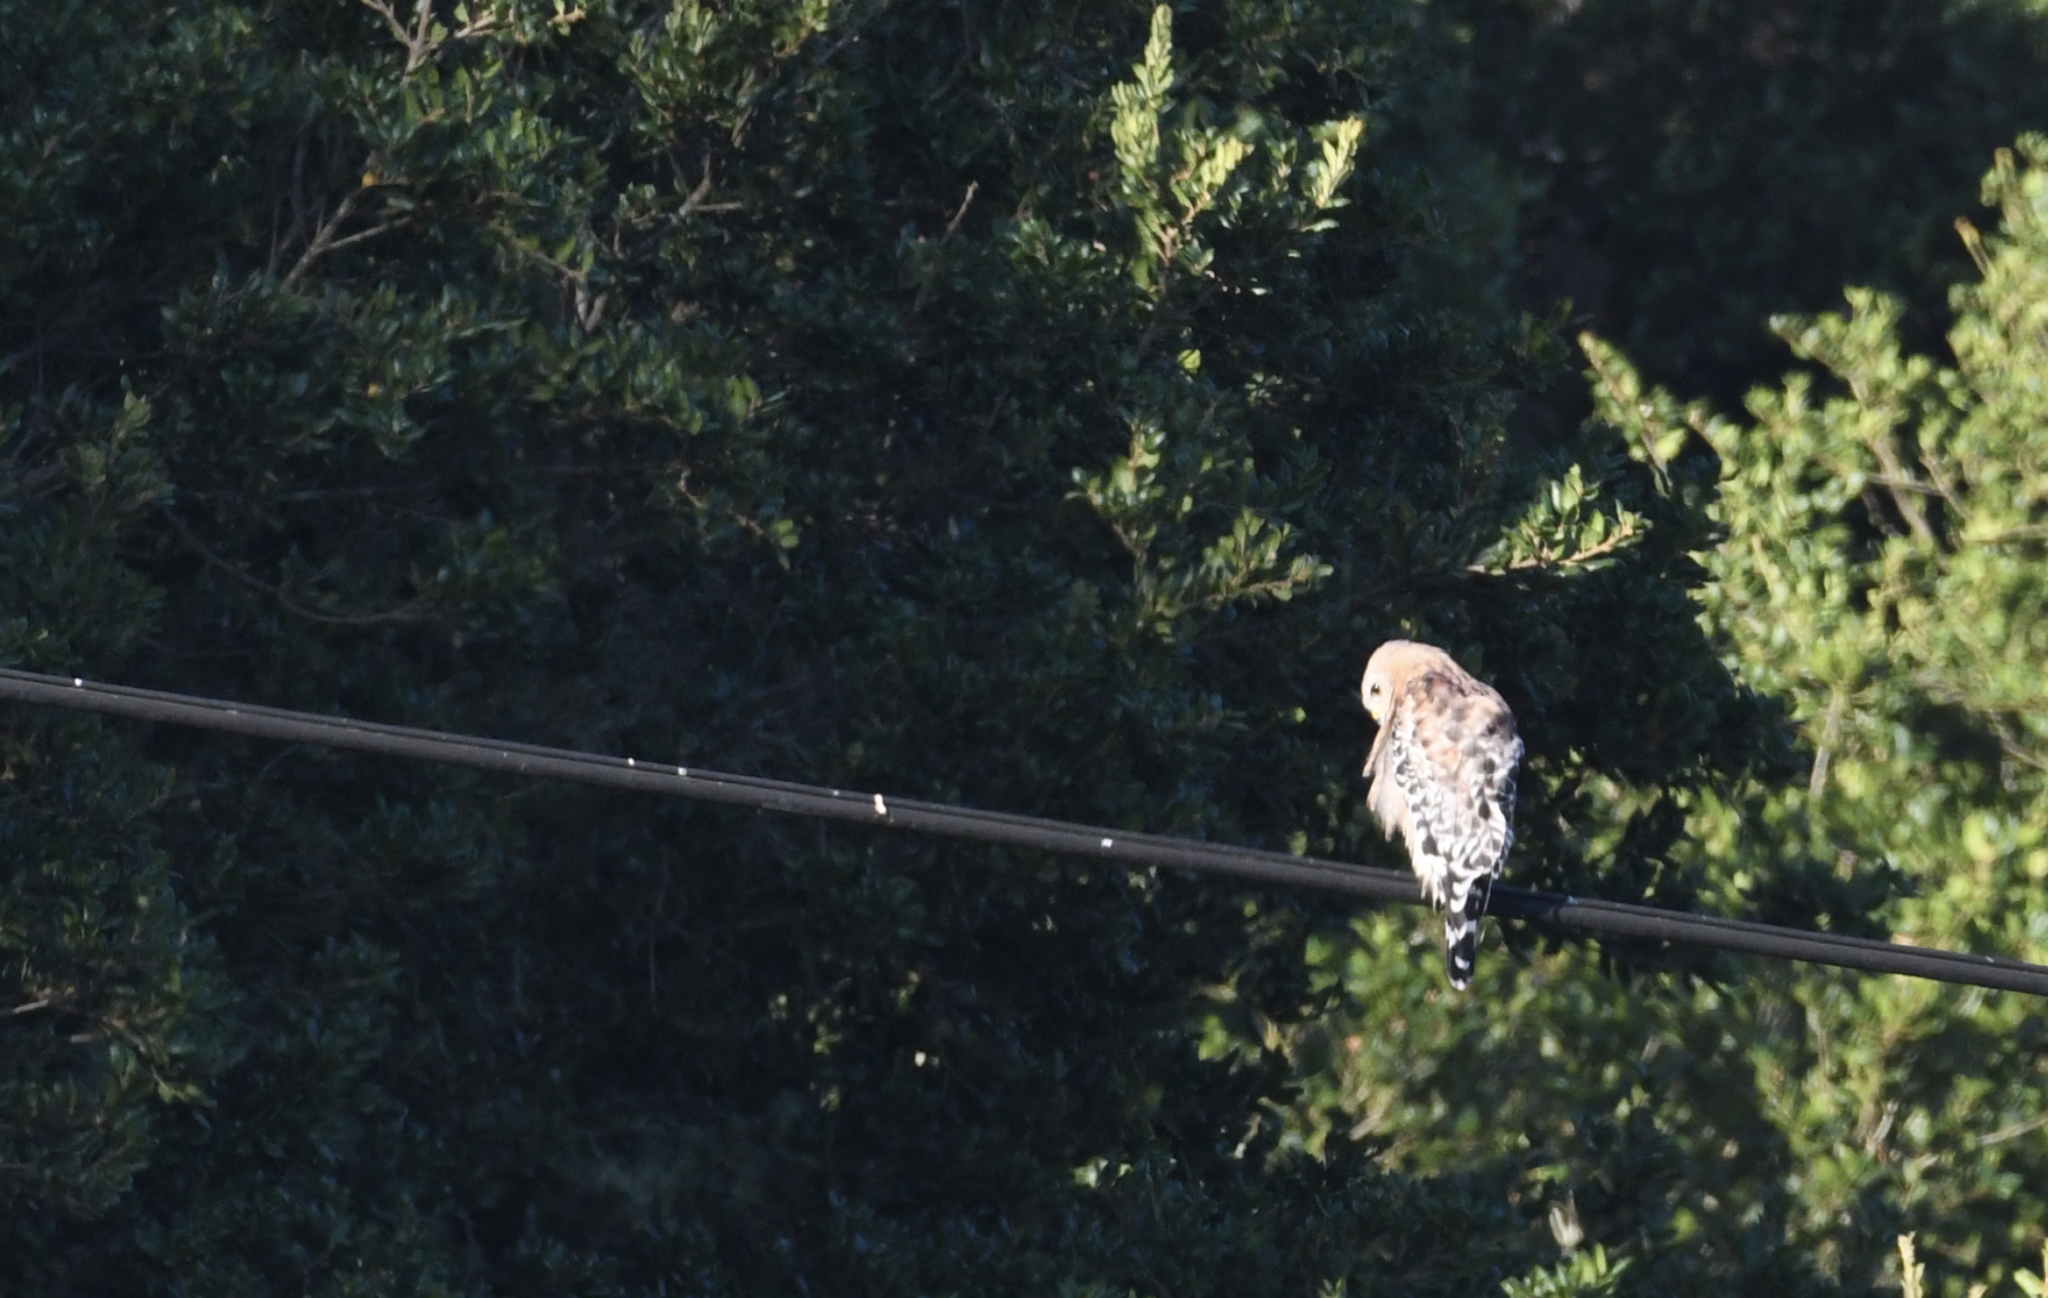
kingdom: Animalia
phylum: Chordata
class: Aves
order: Accipitriformes
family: Accipitridae
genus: Buteo
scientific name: Buteo lineatus
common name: Red-shouldered hawk
